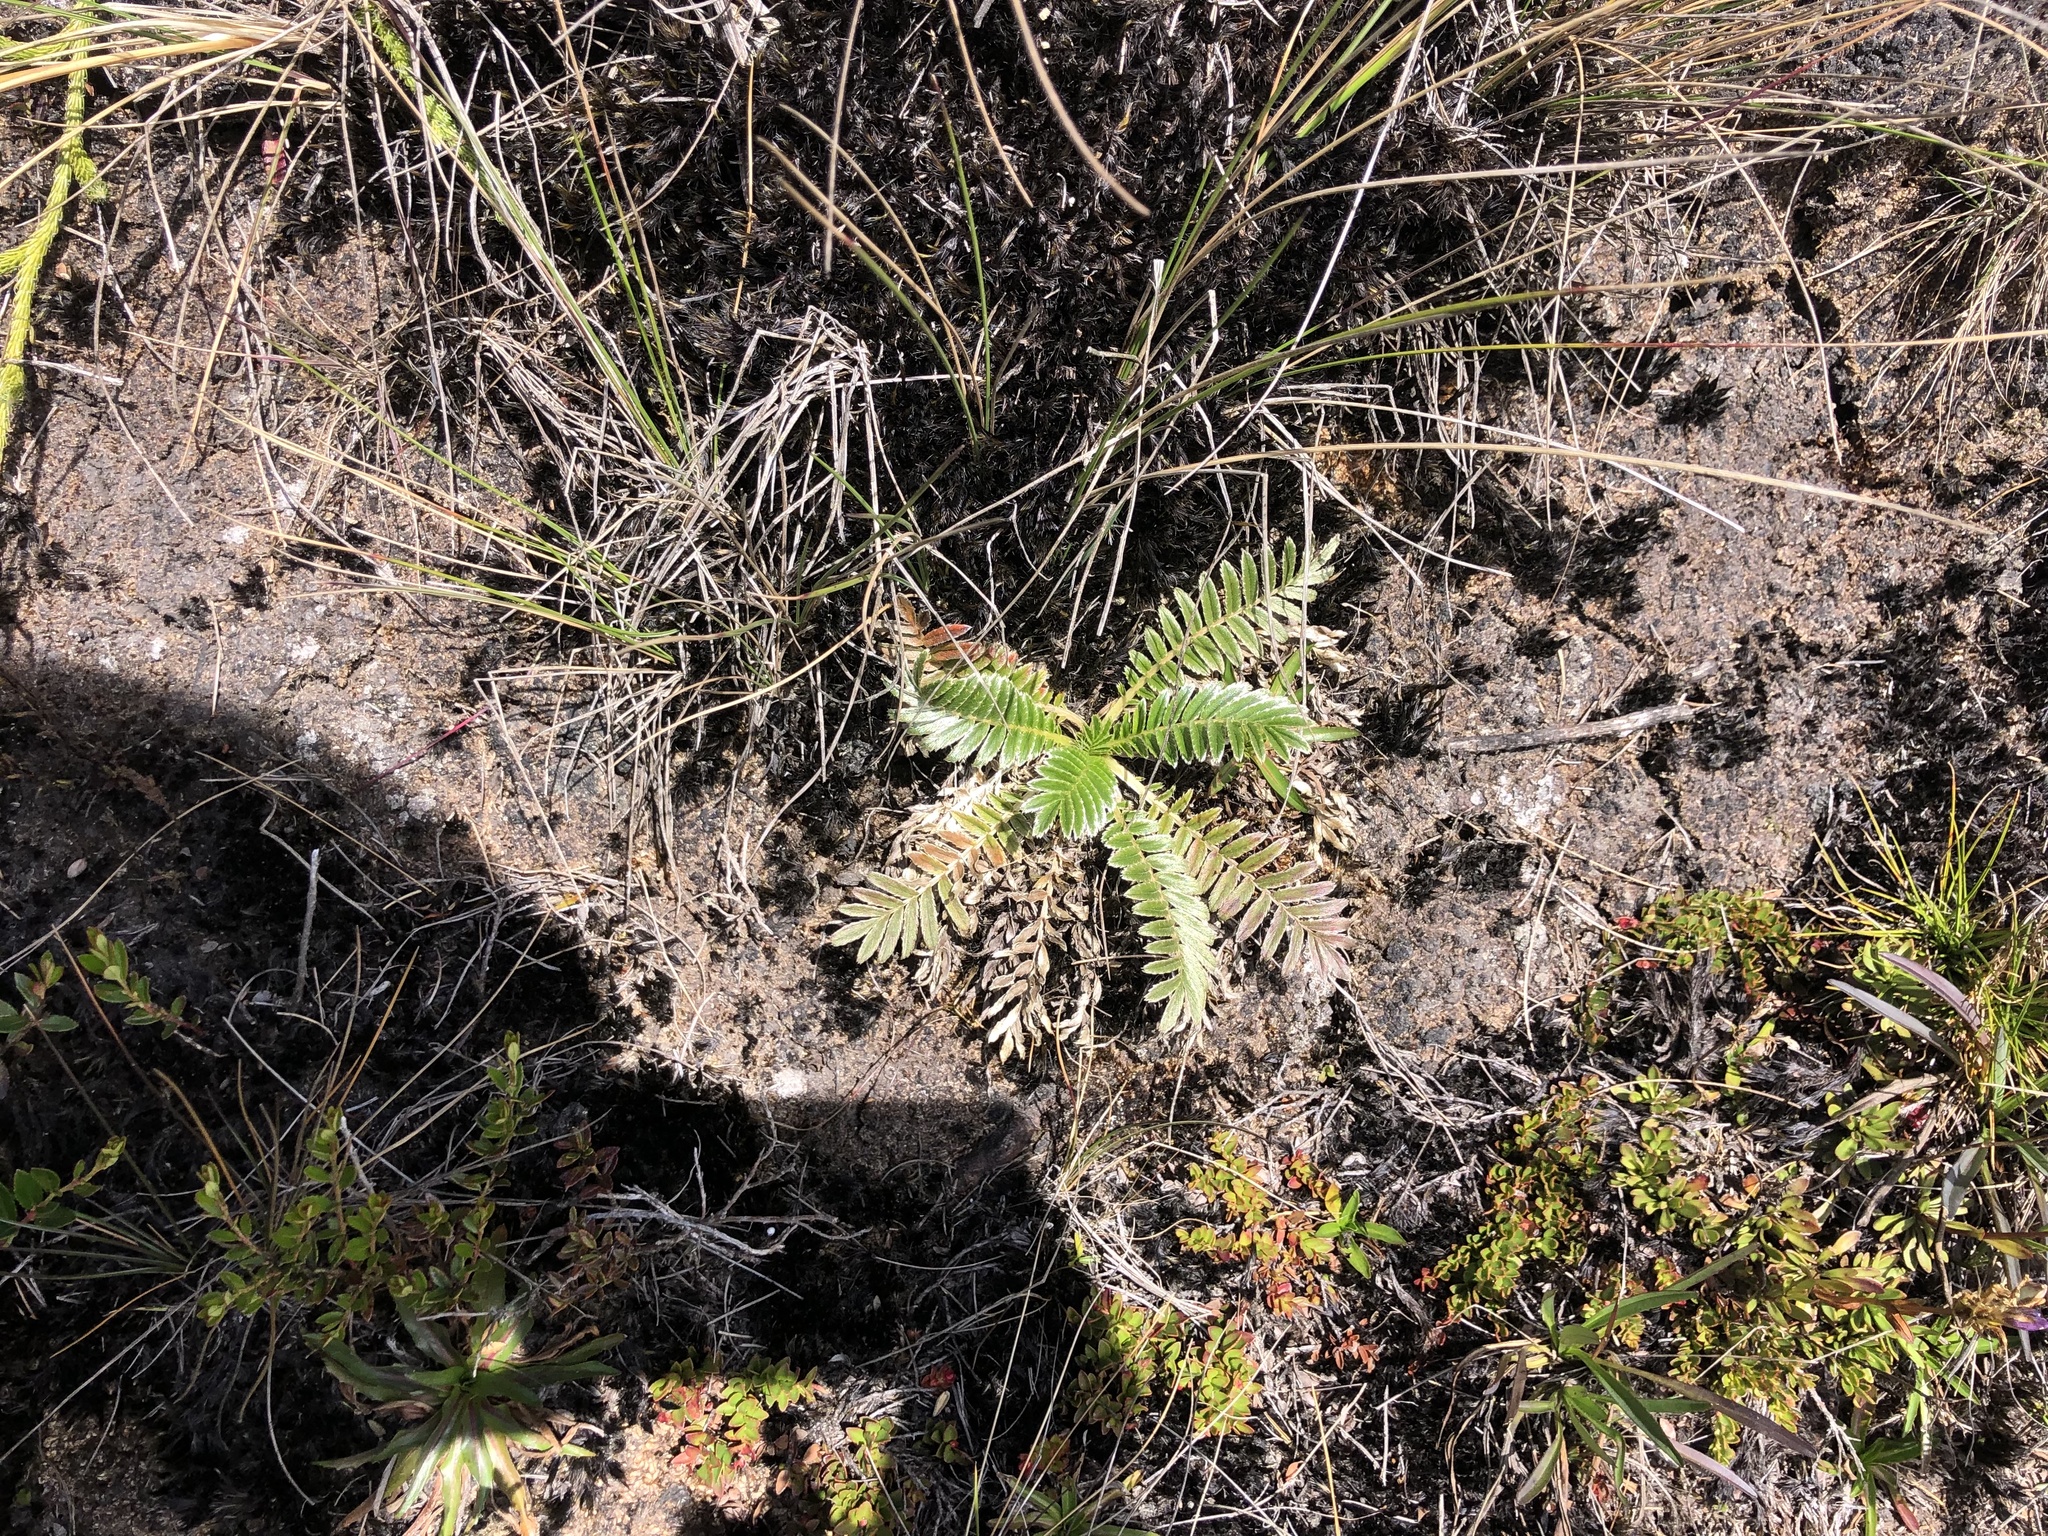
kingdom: Plantae
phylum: Tracheophyta
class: Magnoliopsida
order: Rosales
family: Rosaceae
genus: Acaena
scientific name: Acaena cylindristachya
